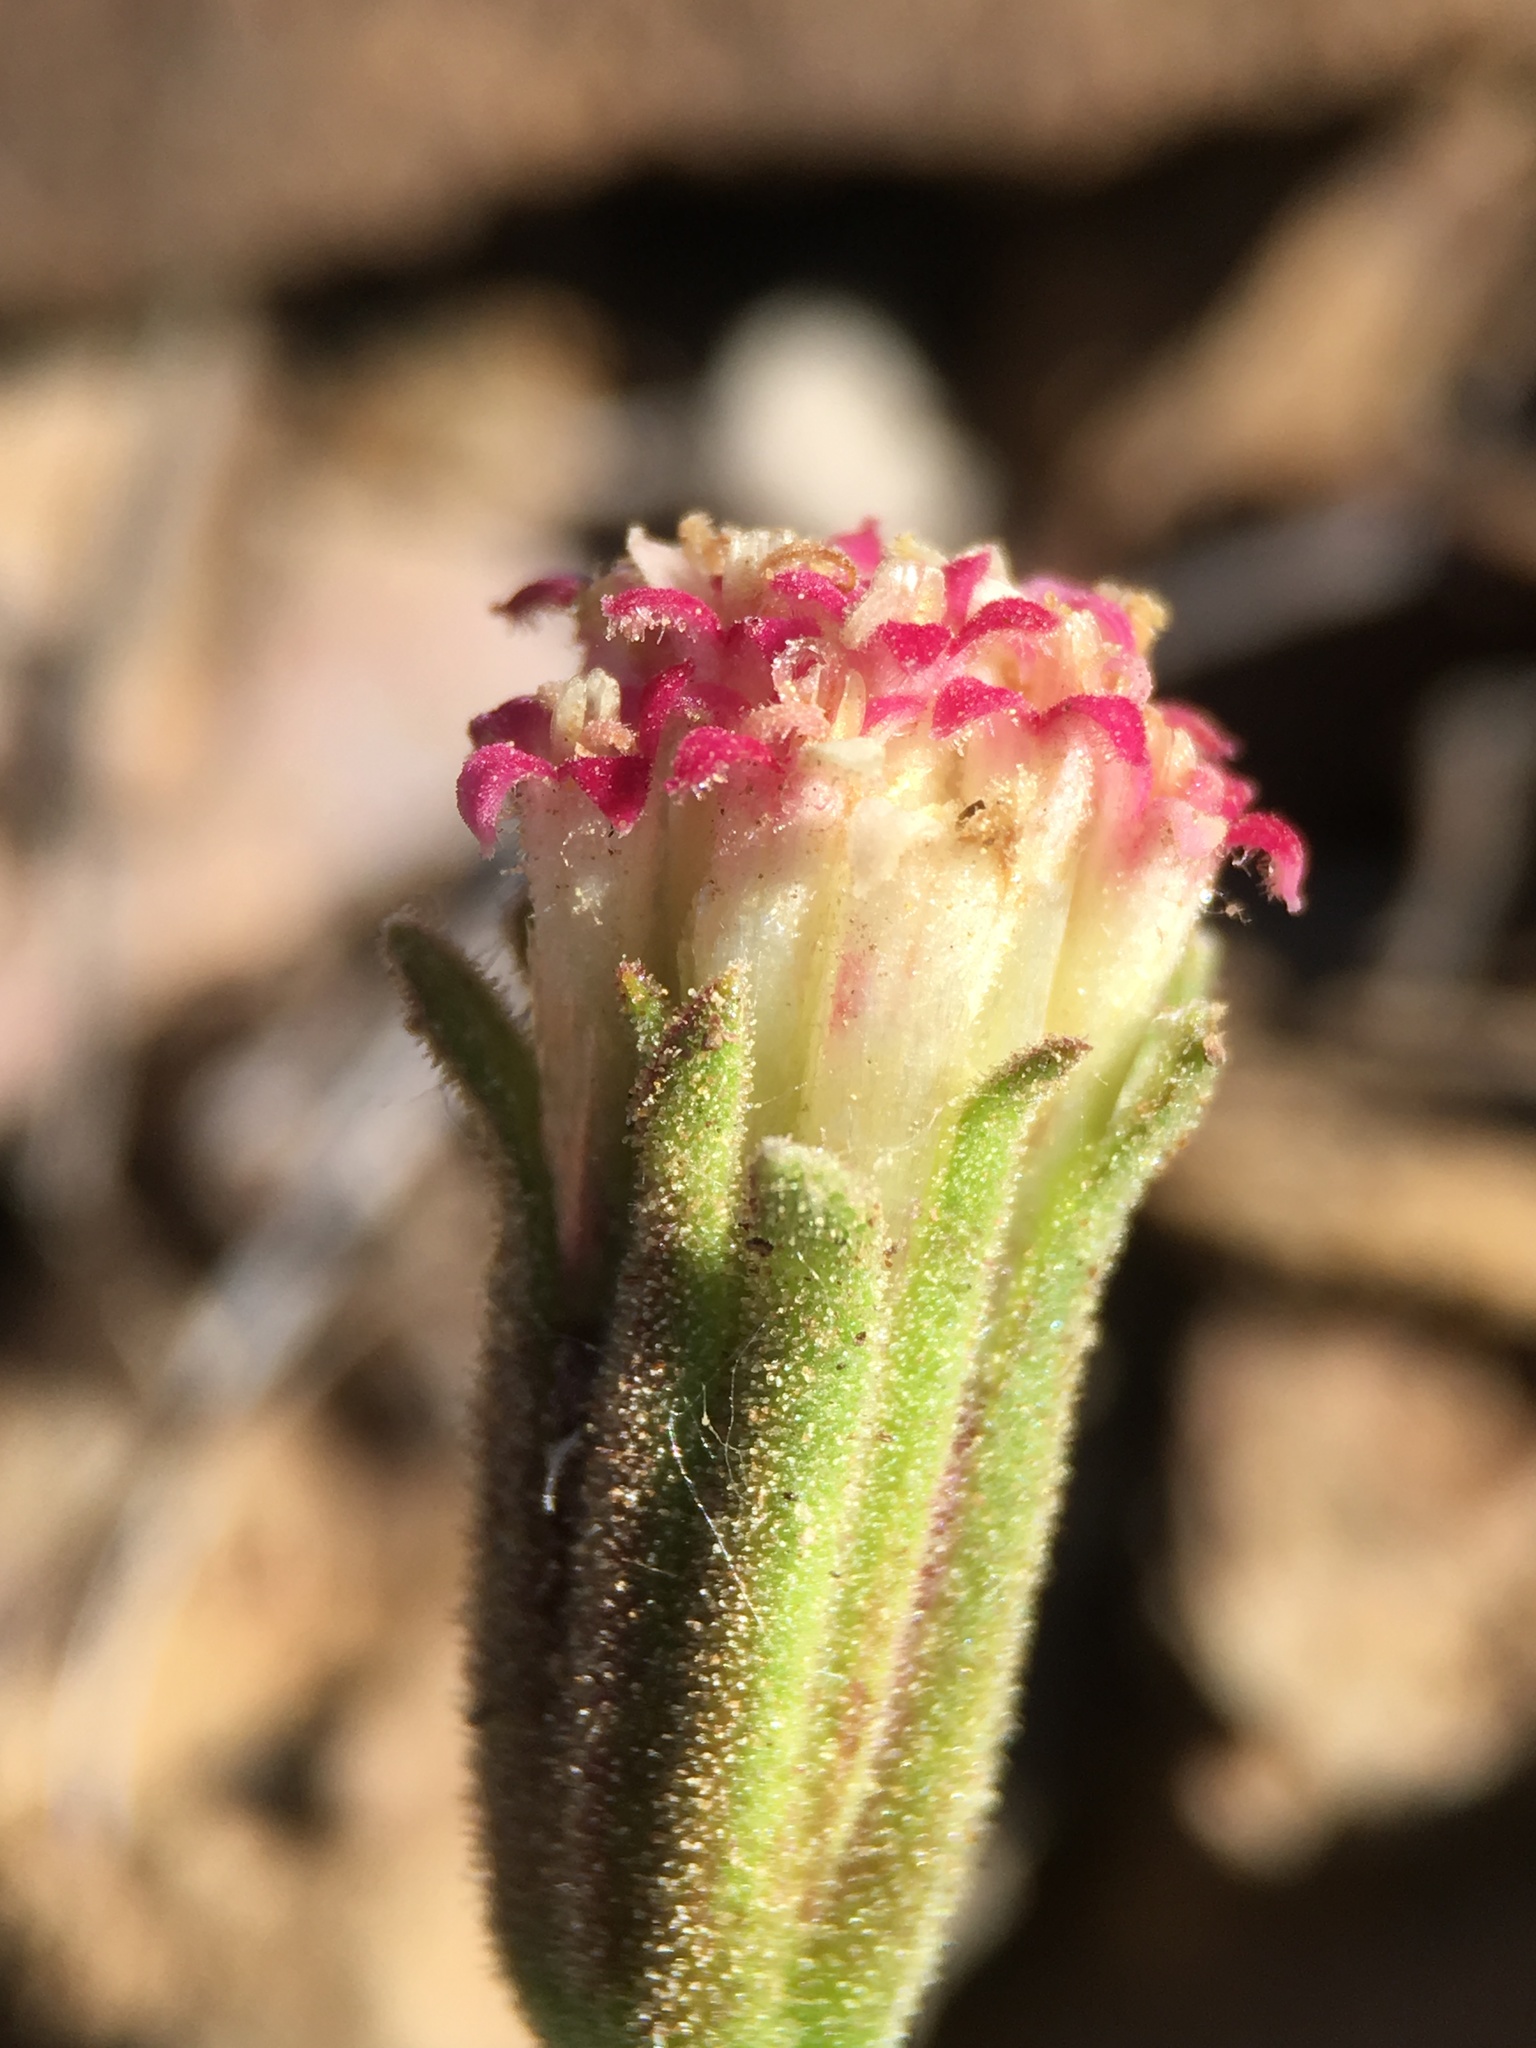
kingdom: Plantae
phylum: Tracheophyta
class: Magnoliopsida
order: Asterales
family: Asteraceae
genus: Chaenactis
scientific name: Chaenactis nevadensis
